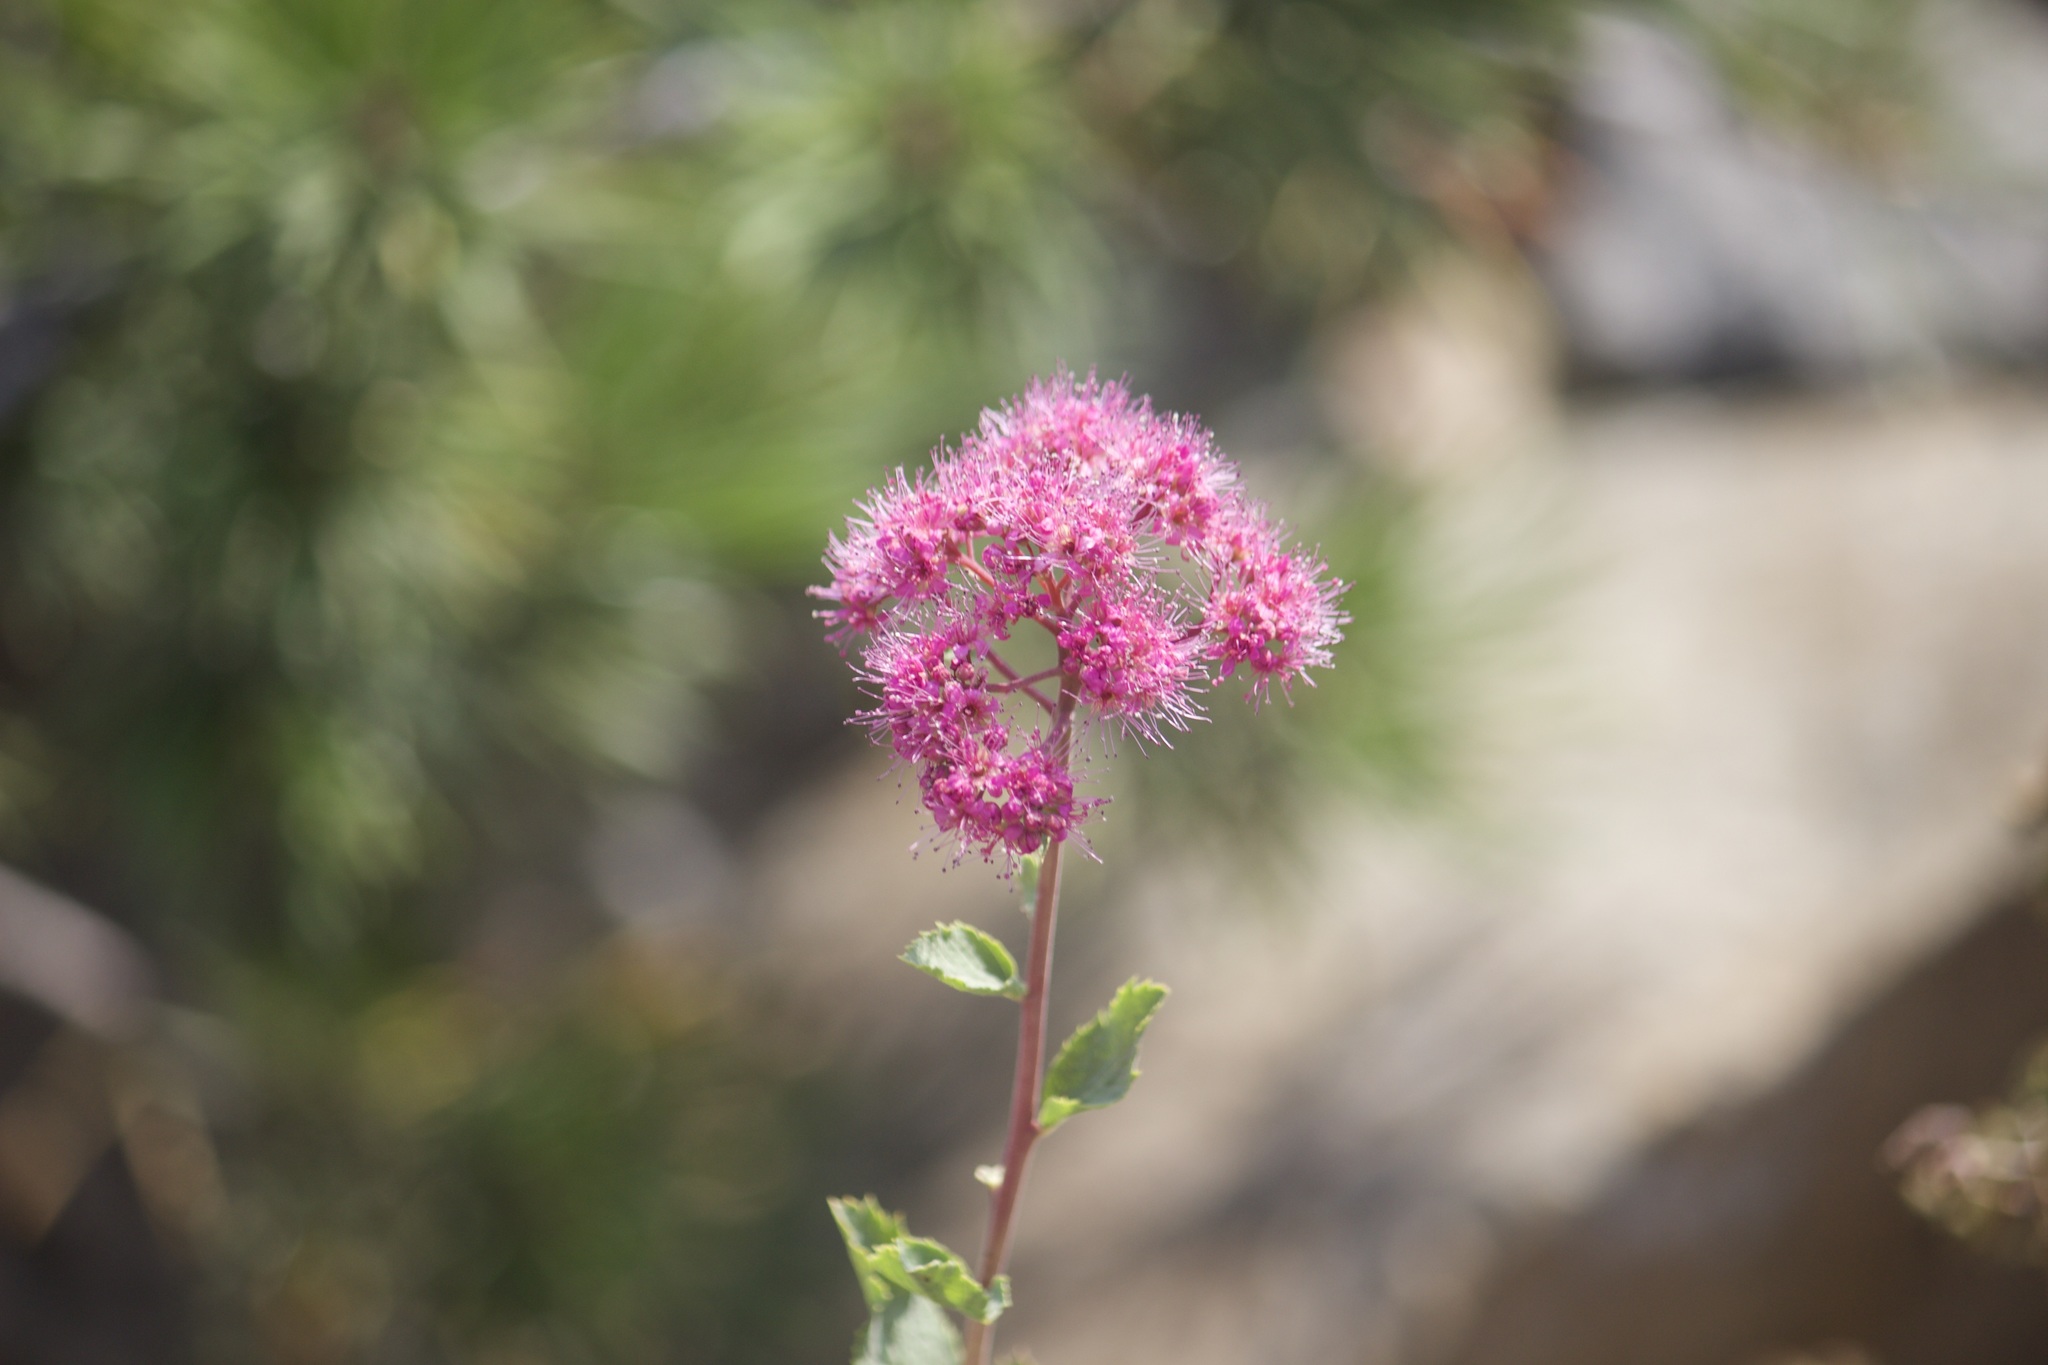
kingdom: Plantae
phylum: Tracheophyta
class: Magnoliopsida
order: Rosales
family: Rosaceae
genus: Spiraea
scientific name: Spiraea splendens
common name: Subalpine meadowsweet
